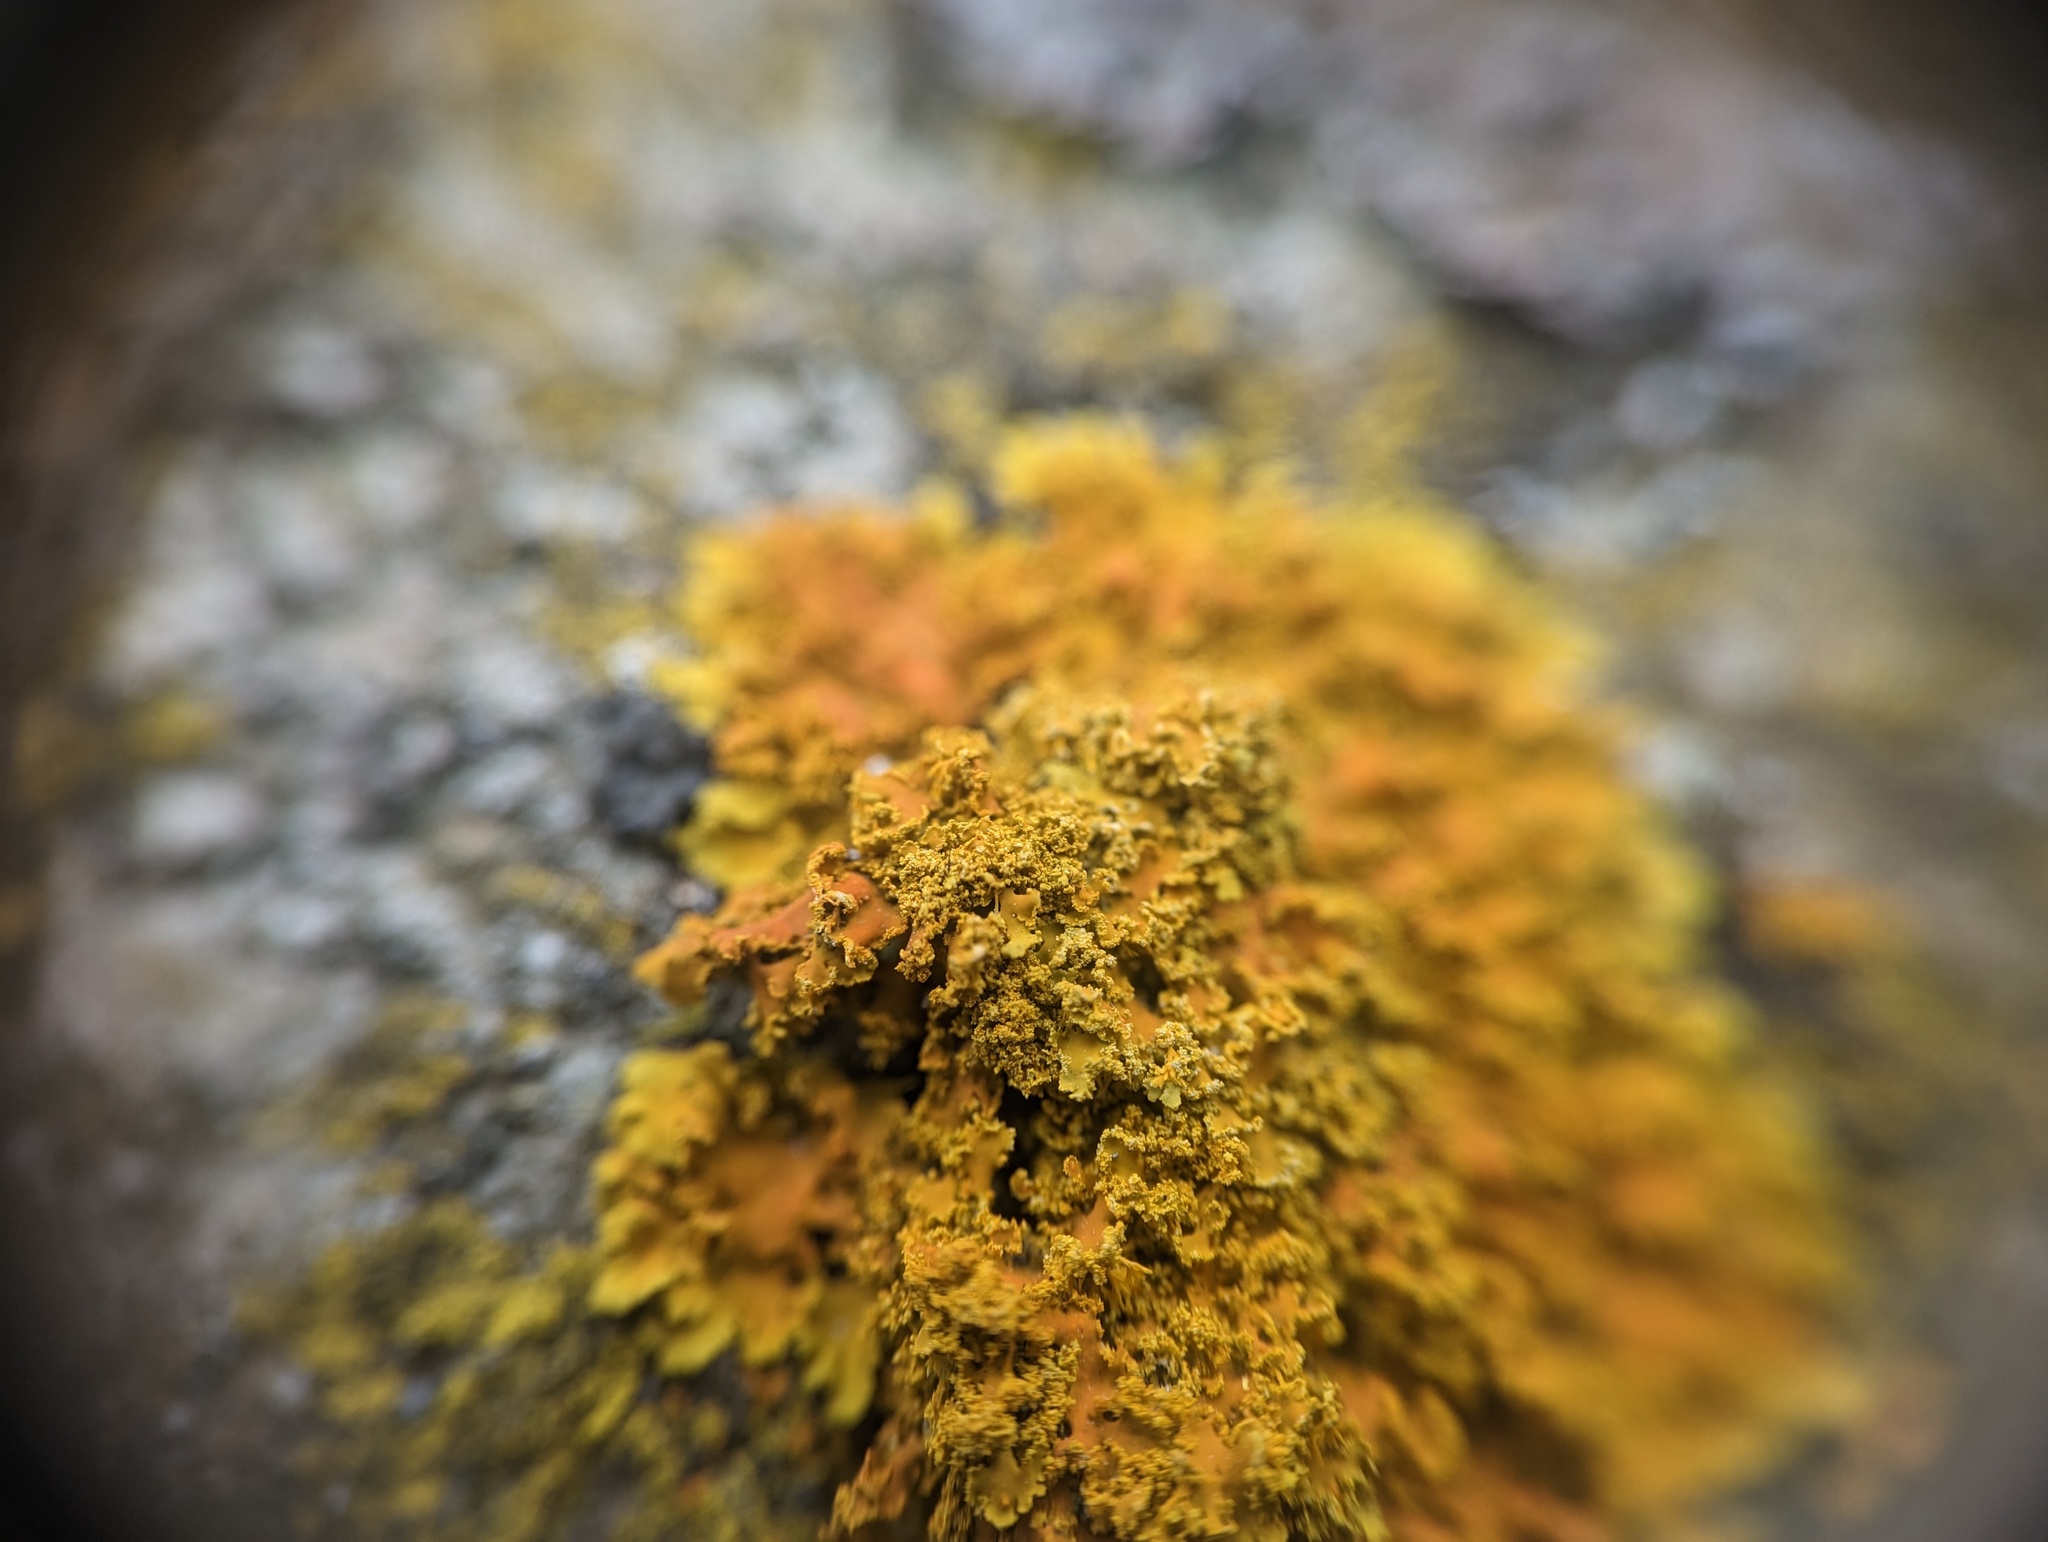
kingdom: Fungi
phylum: Ascomycota
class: Lecanoromycetes
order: Teloschistales
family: Teloschistaceae
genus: Xanthoria
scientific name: Xanthoria ulophyllodes
